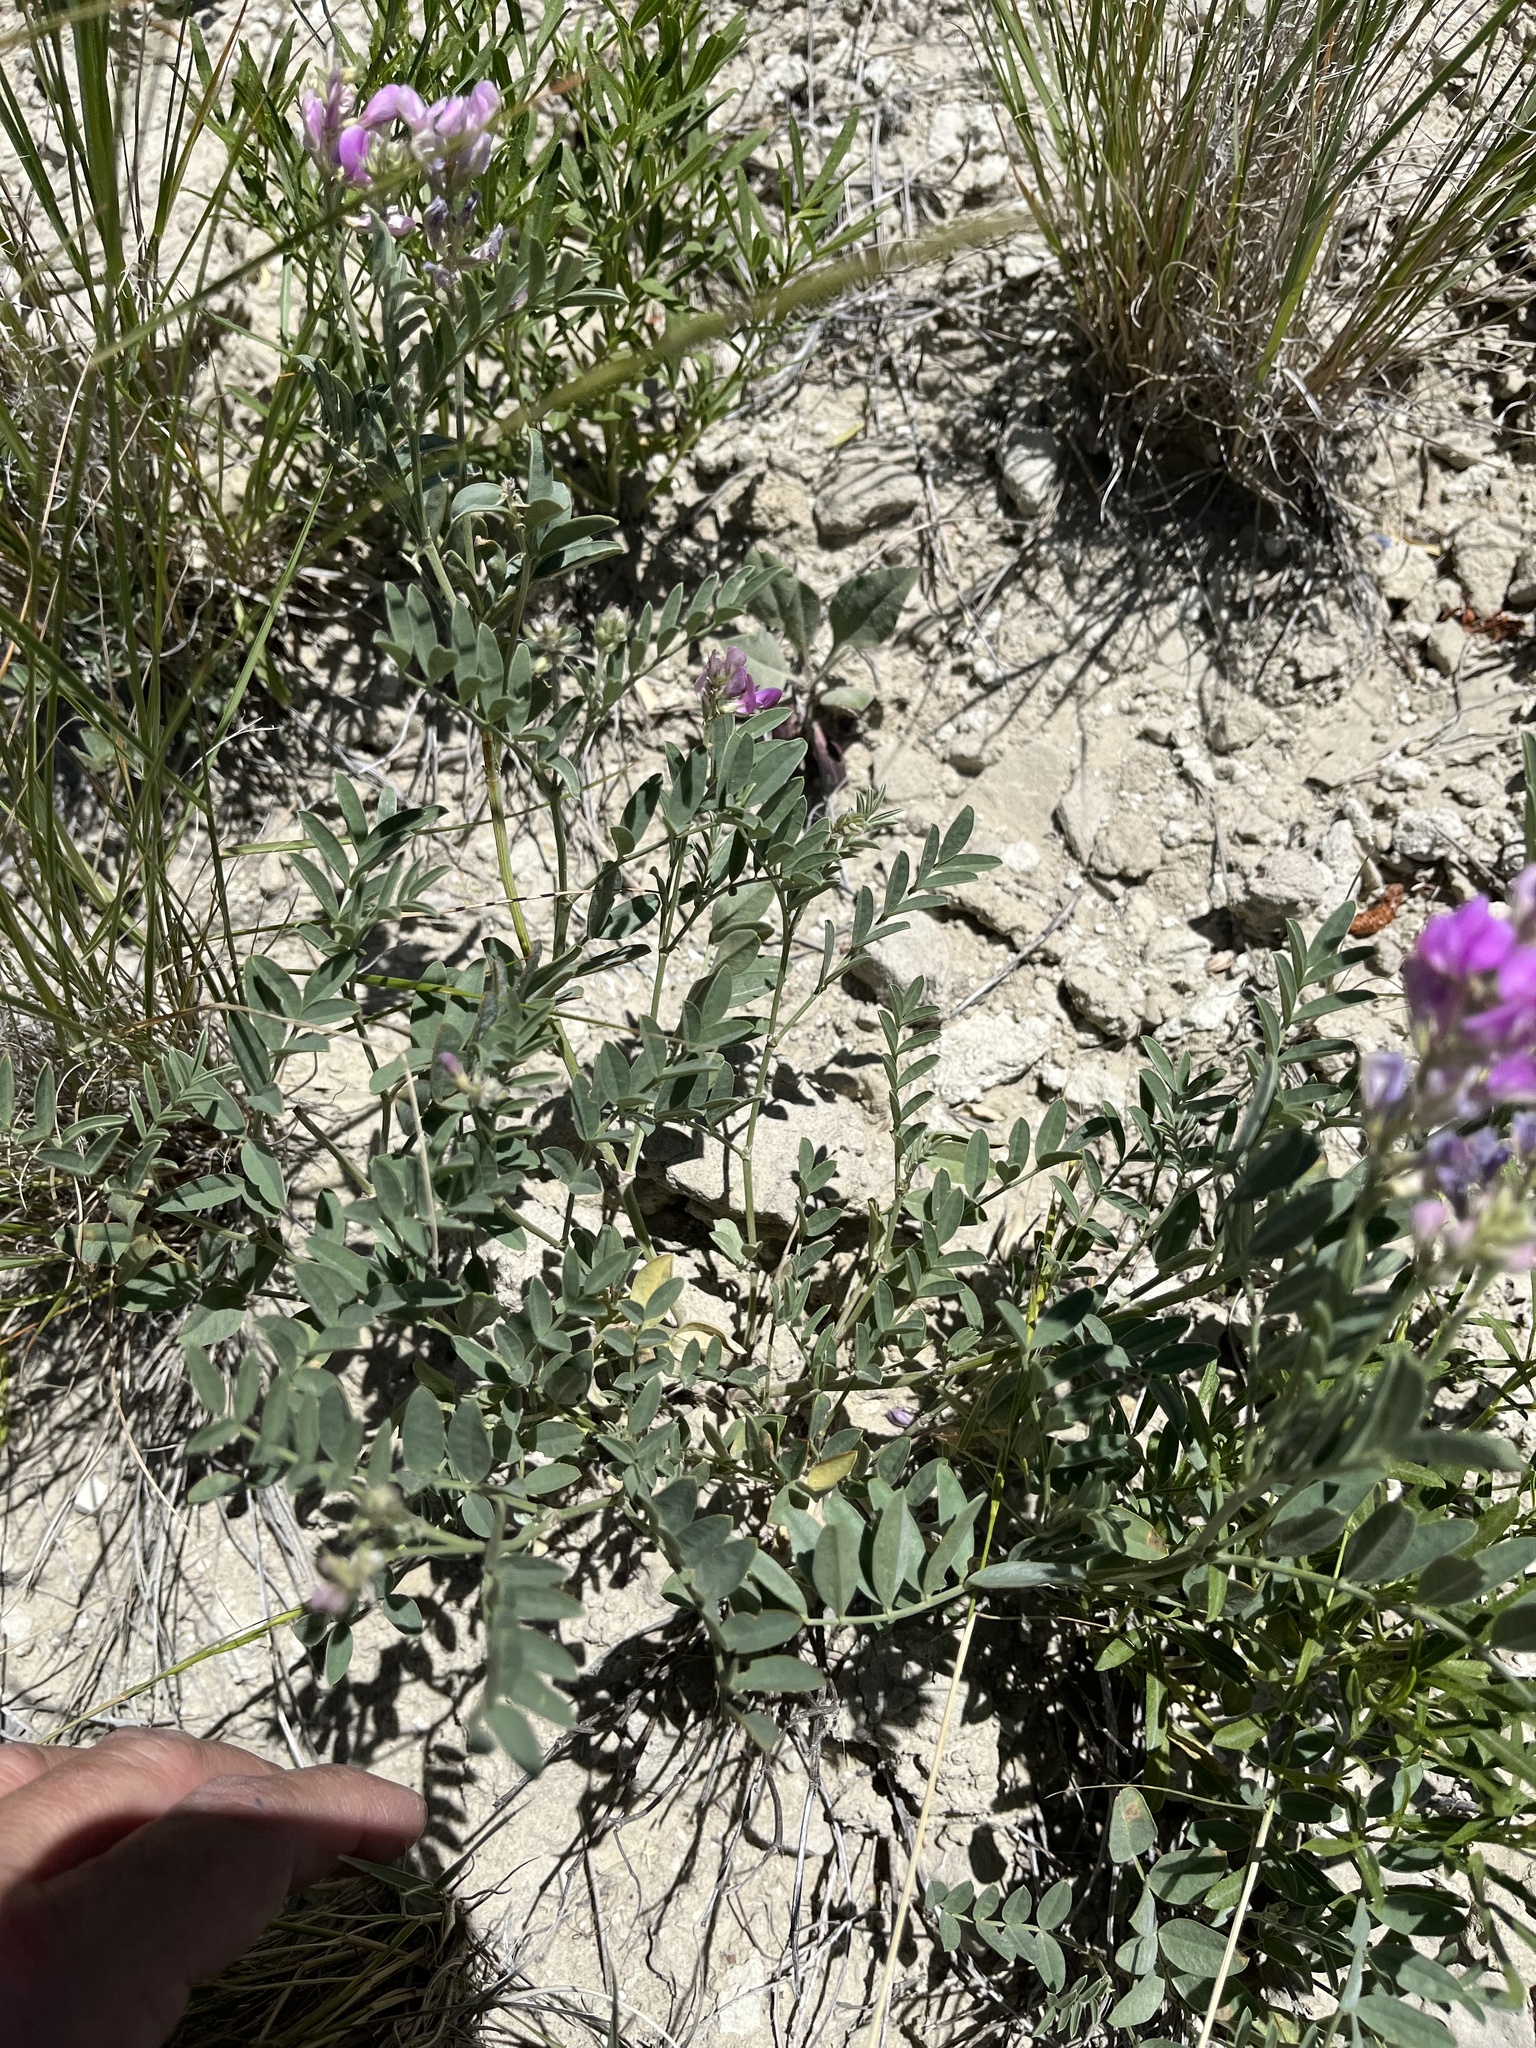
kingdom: Plantae
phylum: Tracheophyta
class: Magnoliopsida
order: Fabales
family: Fabaceae
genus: Hedysarum
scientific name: Hedysarum boreale
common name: Northern sweet-vetch
